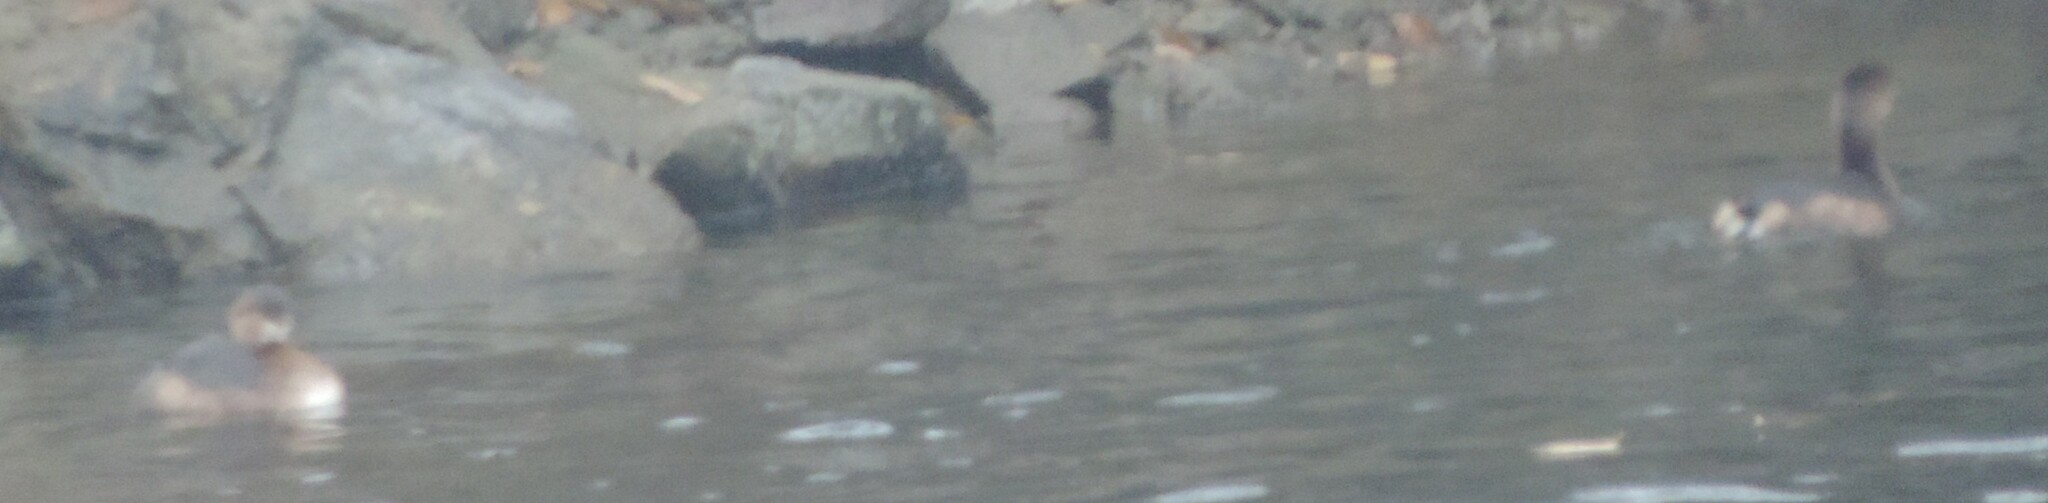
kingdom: Animalia
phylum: Chordata
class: Aves
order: Podicipediformes
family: Podicipedidae
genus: Podilymbus
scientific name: Podilymbus podiceps
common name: Pied-billed grebe
